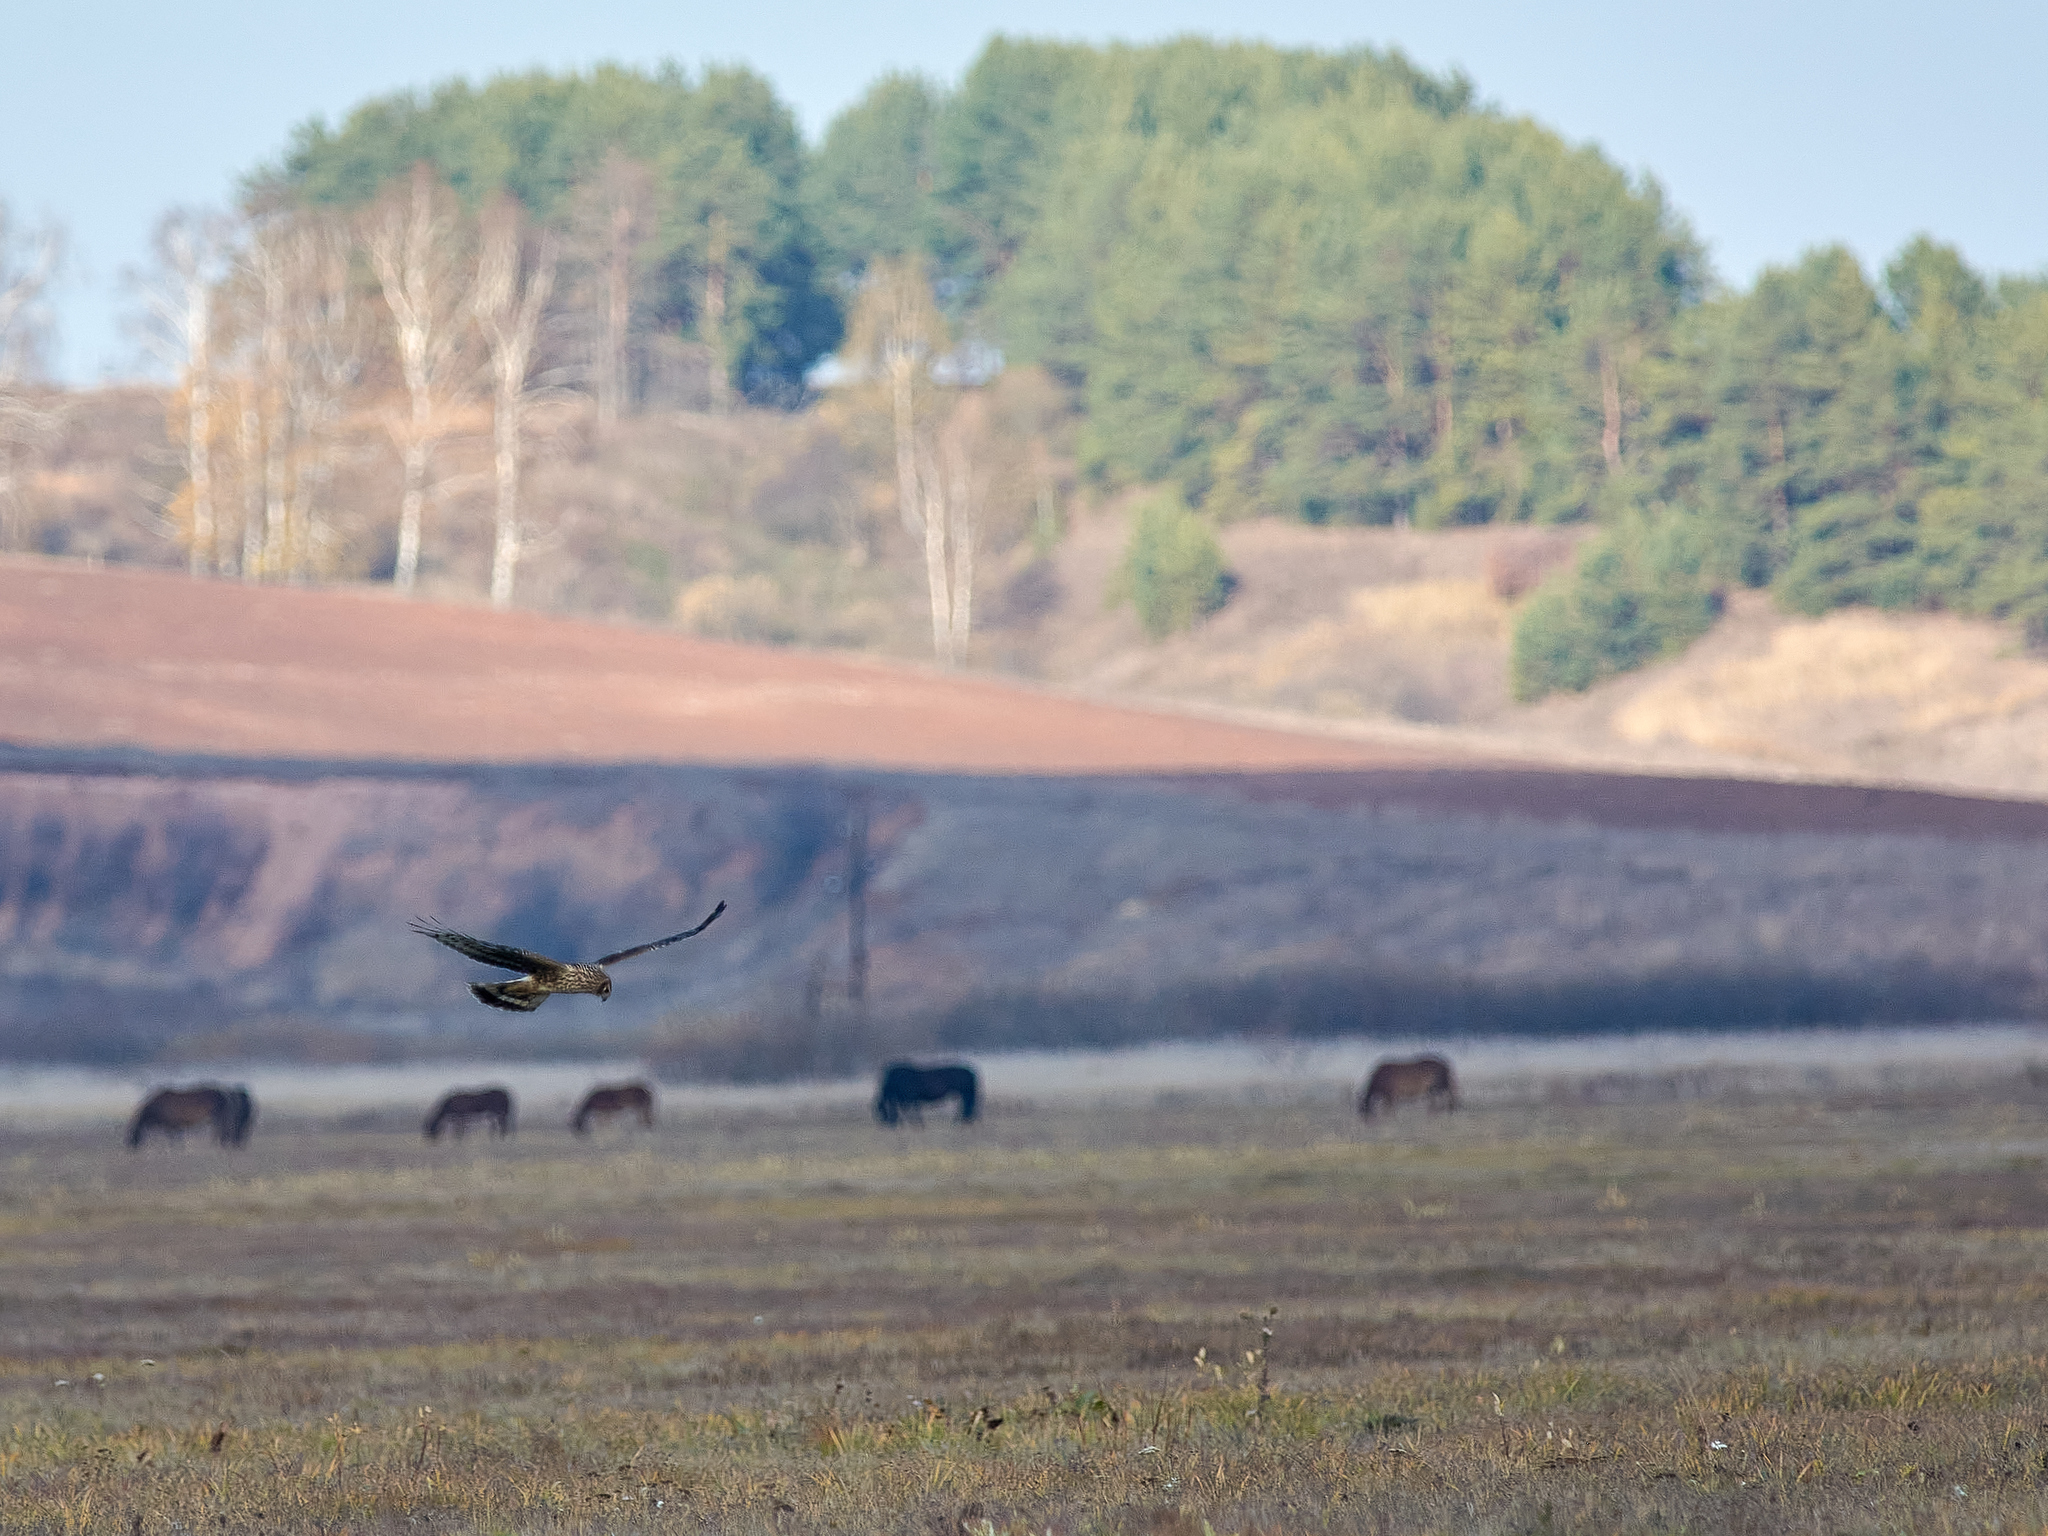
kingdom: Animalia
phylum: Chordata
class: Aves
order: Accipitriformes
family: Accipitridae
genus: Circus
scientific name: Circus cyaneus
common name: Hen harrier
